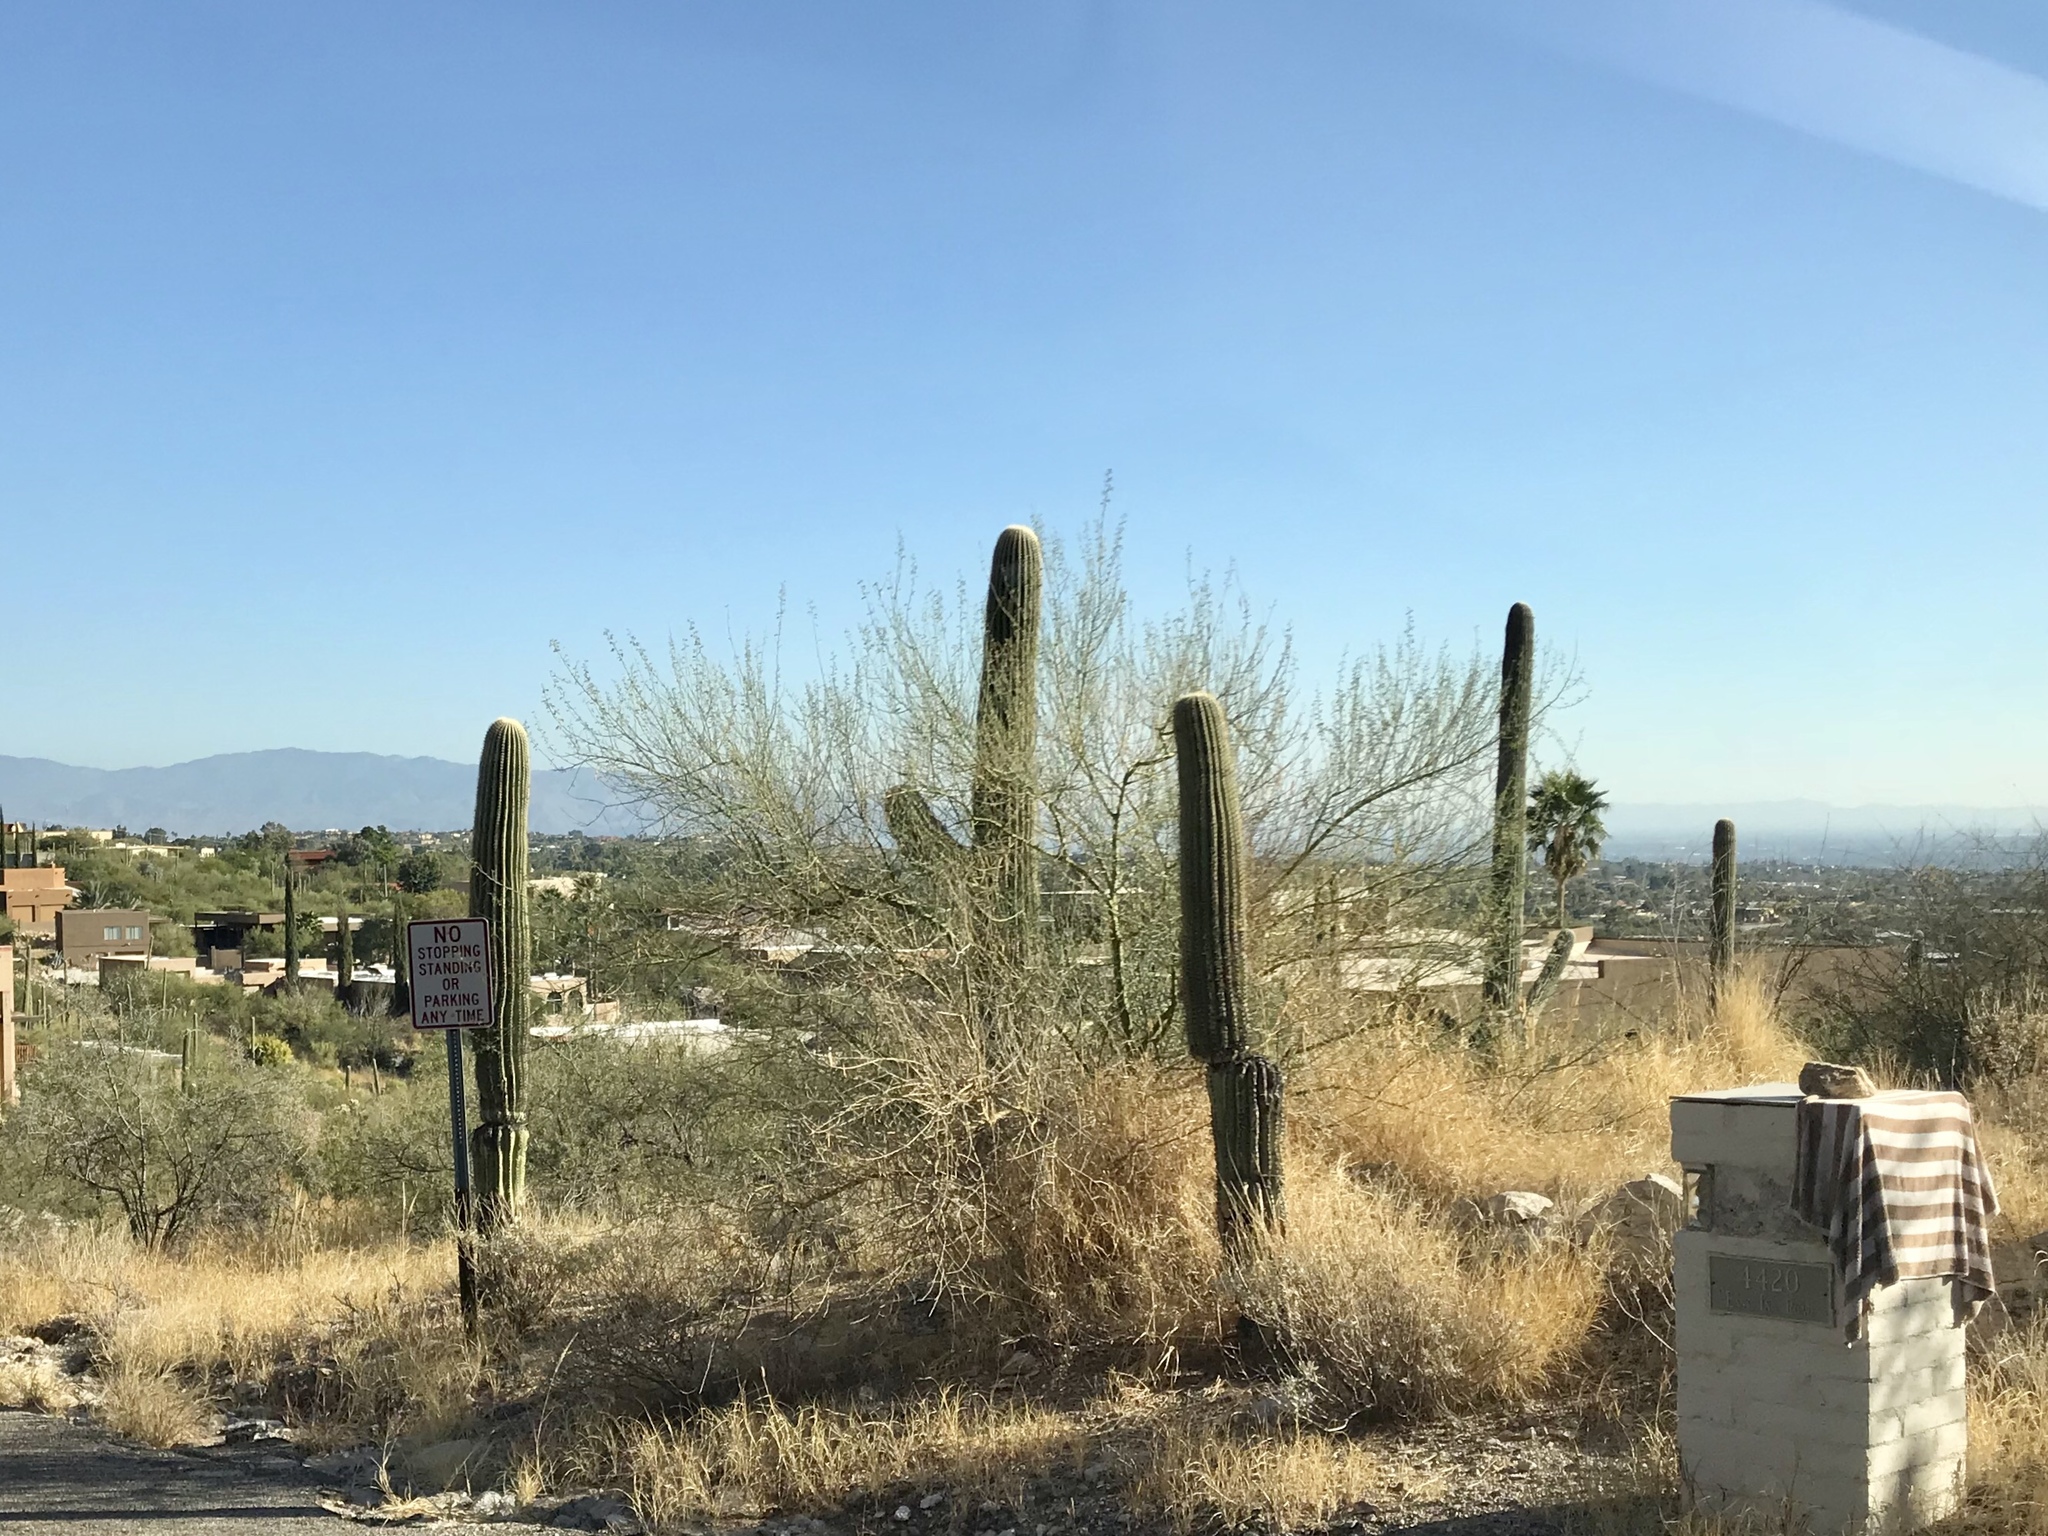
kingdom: Plantae
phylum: Tracheophyta
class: Magnoliopsida
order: Caryophyllales
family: Cactaceae
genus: Carnegiea
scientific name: Carnegiea gigantea
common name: Saguaro
